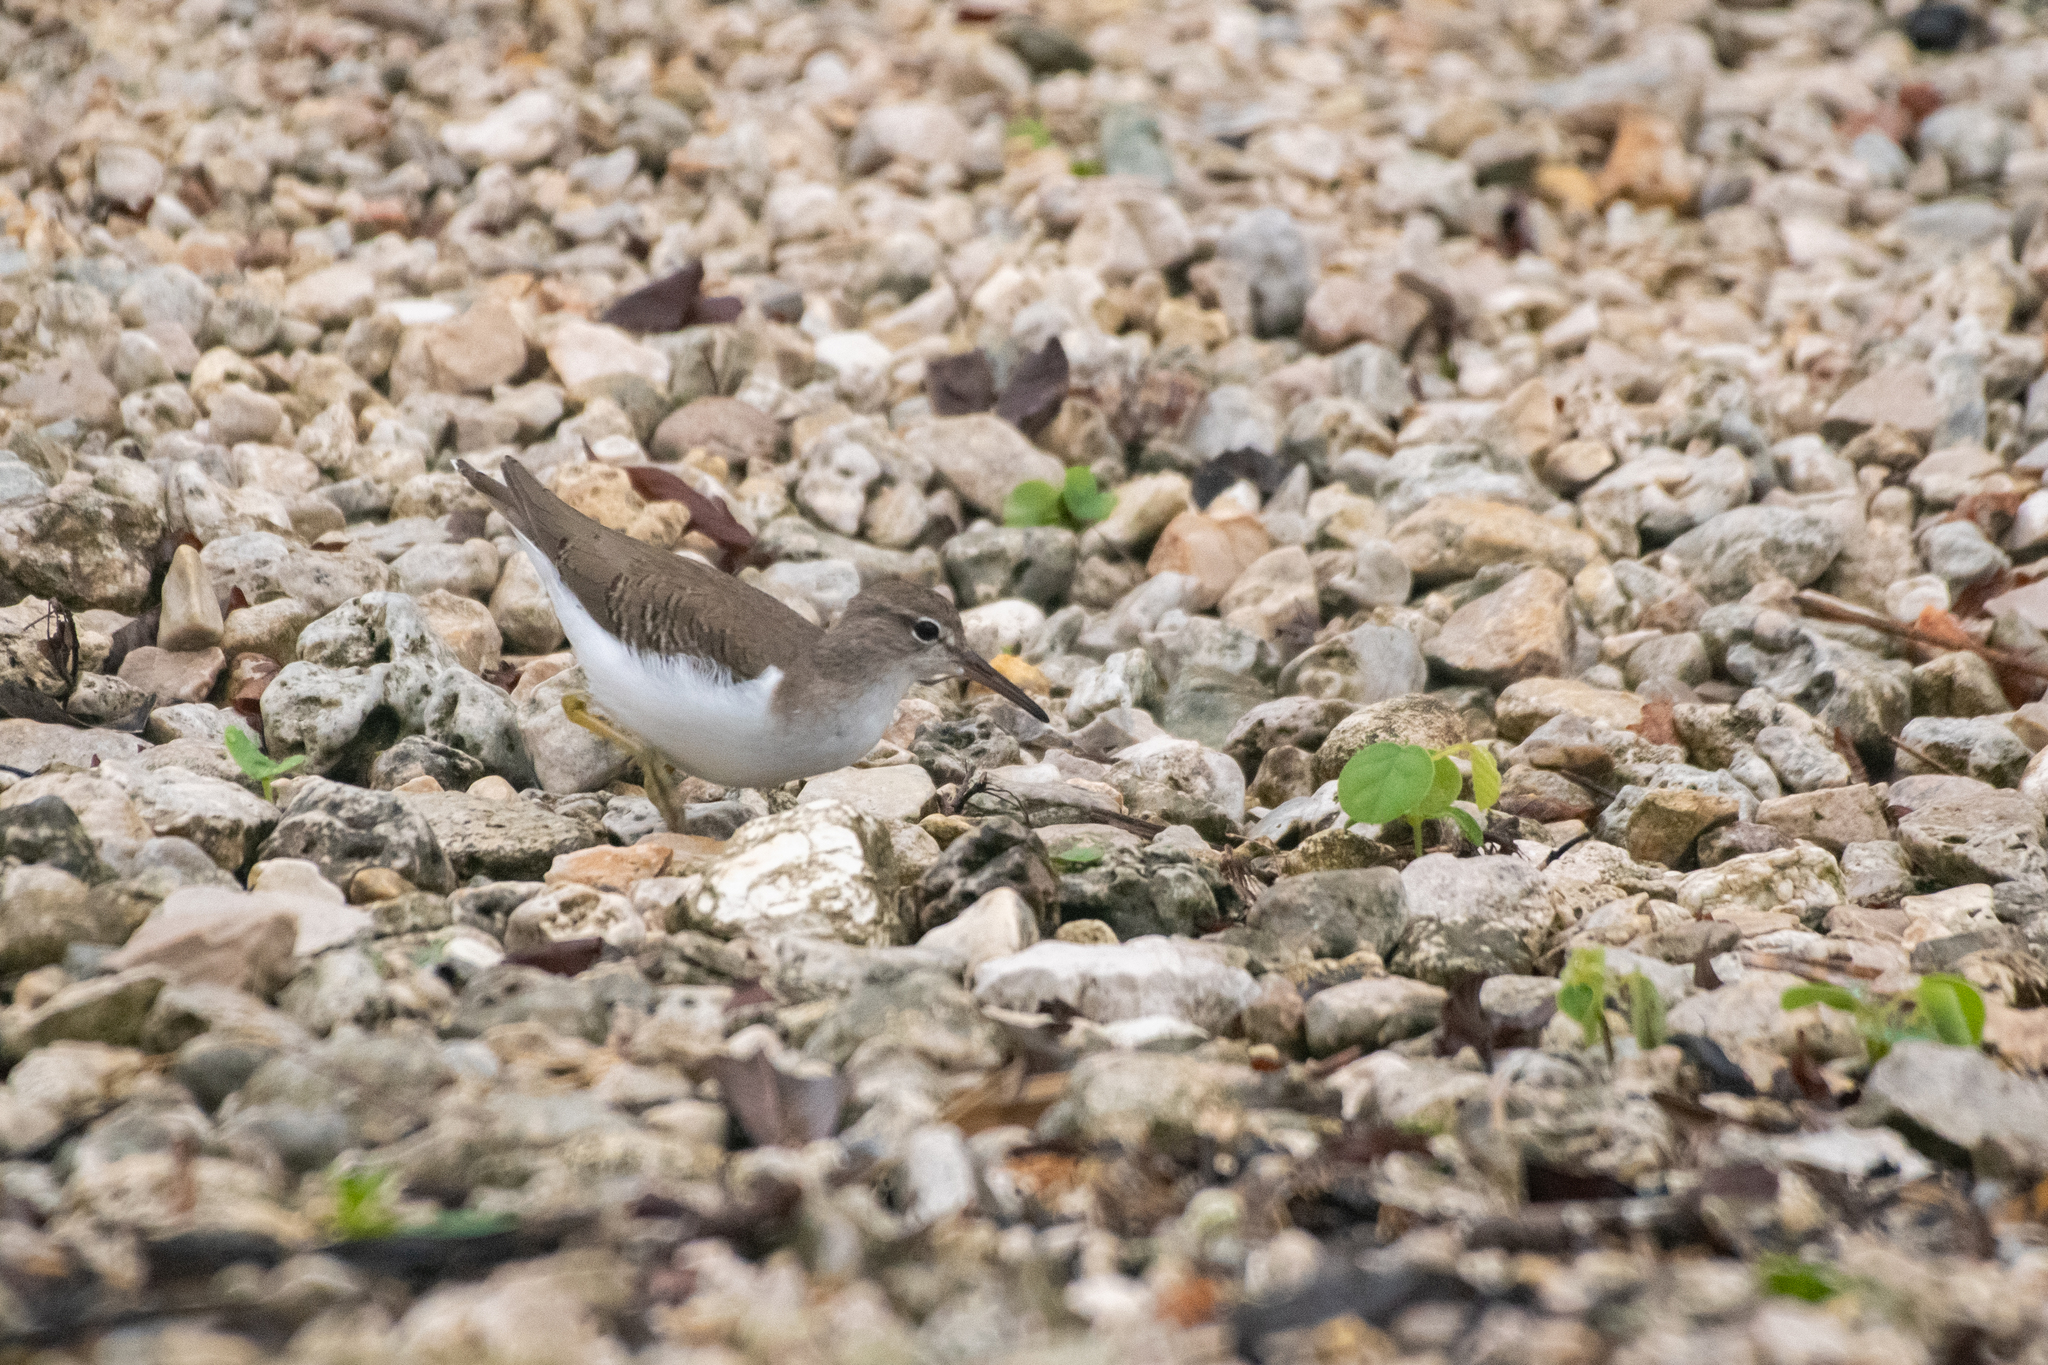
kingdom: Animalia
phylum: Chordata
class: Aves
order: Charadriiformes
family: Scolopacidae
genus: Actitis
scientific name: Actitis macularius
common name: Spotted sandpiper
